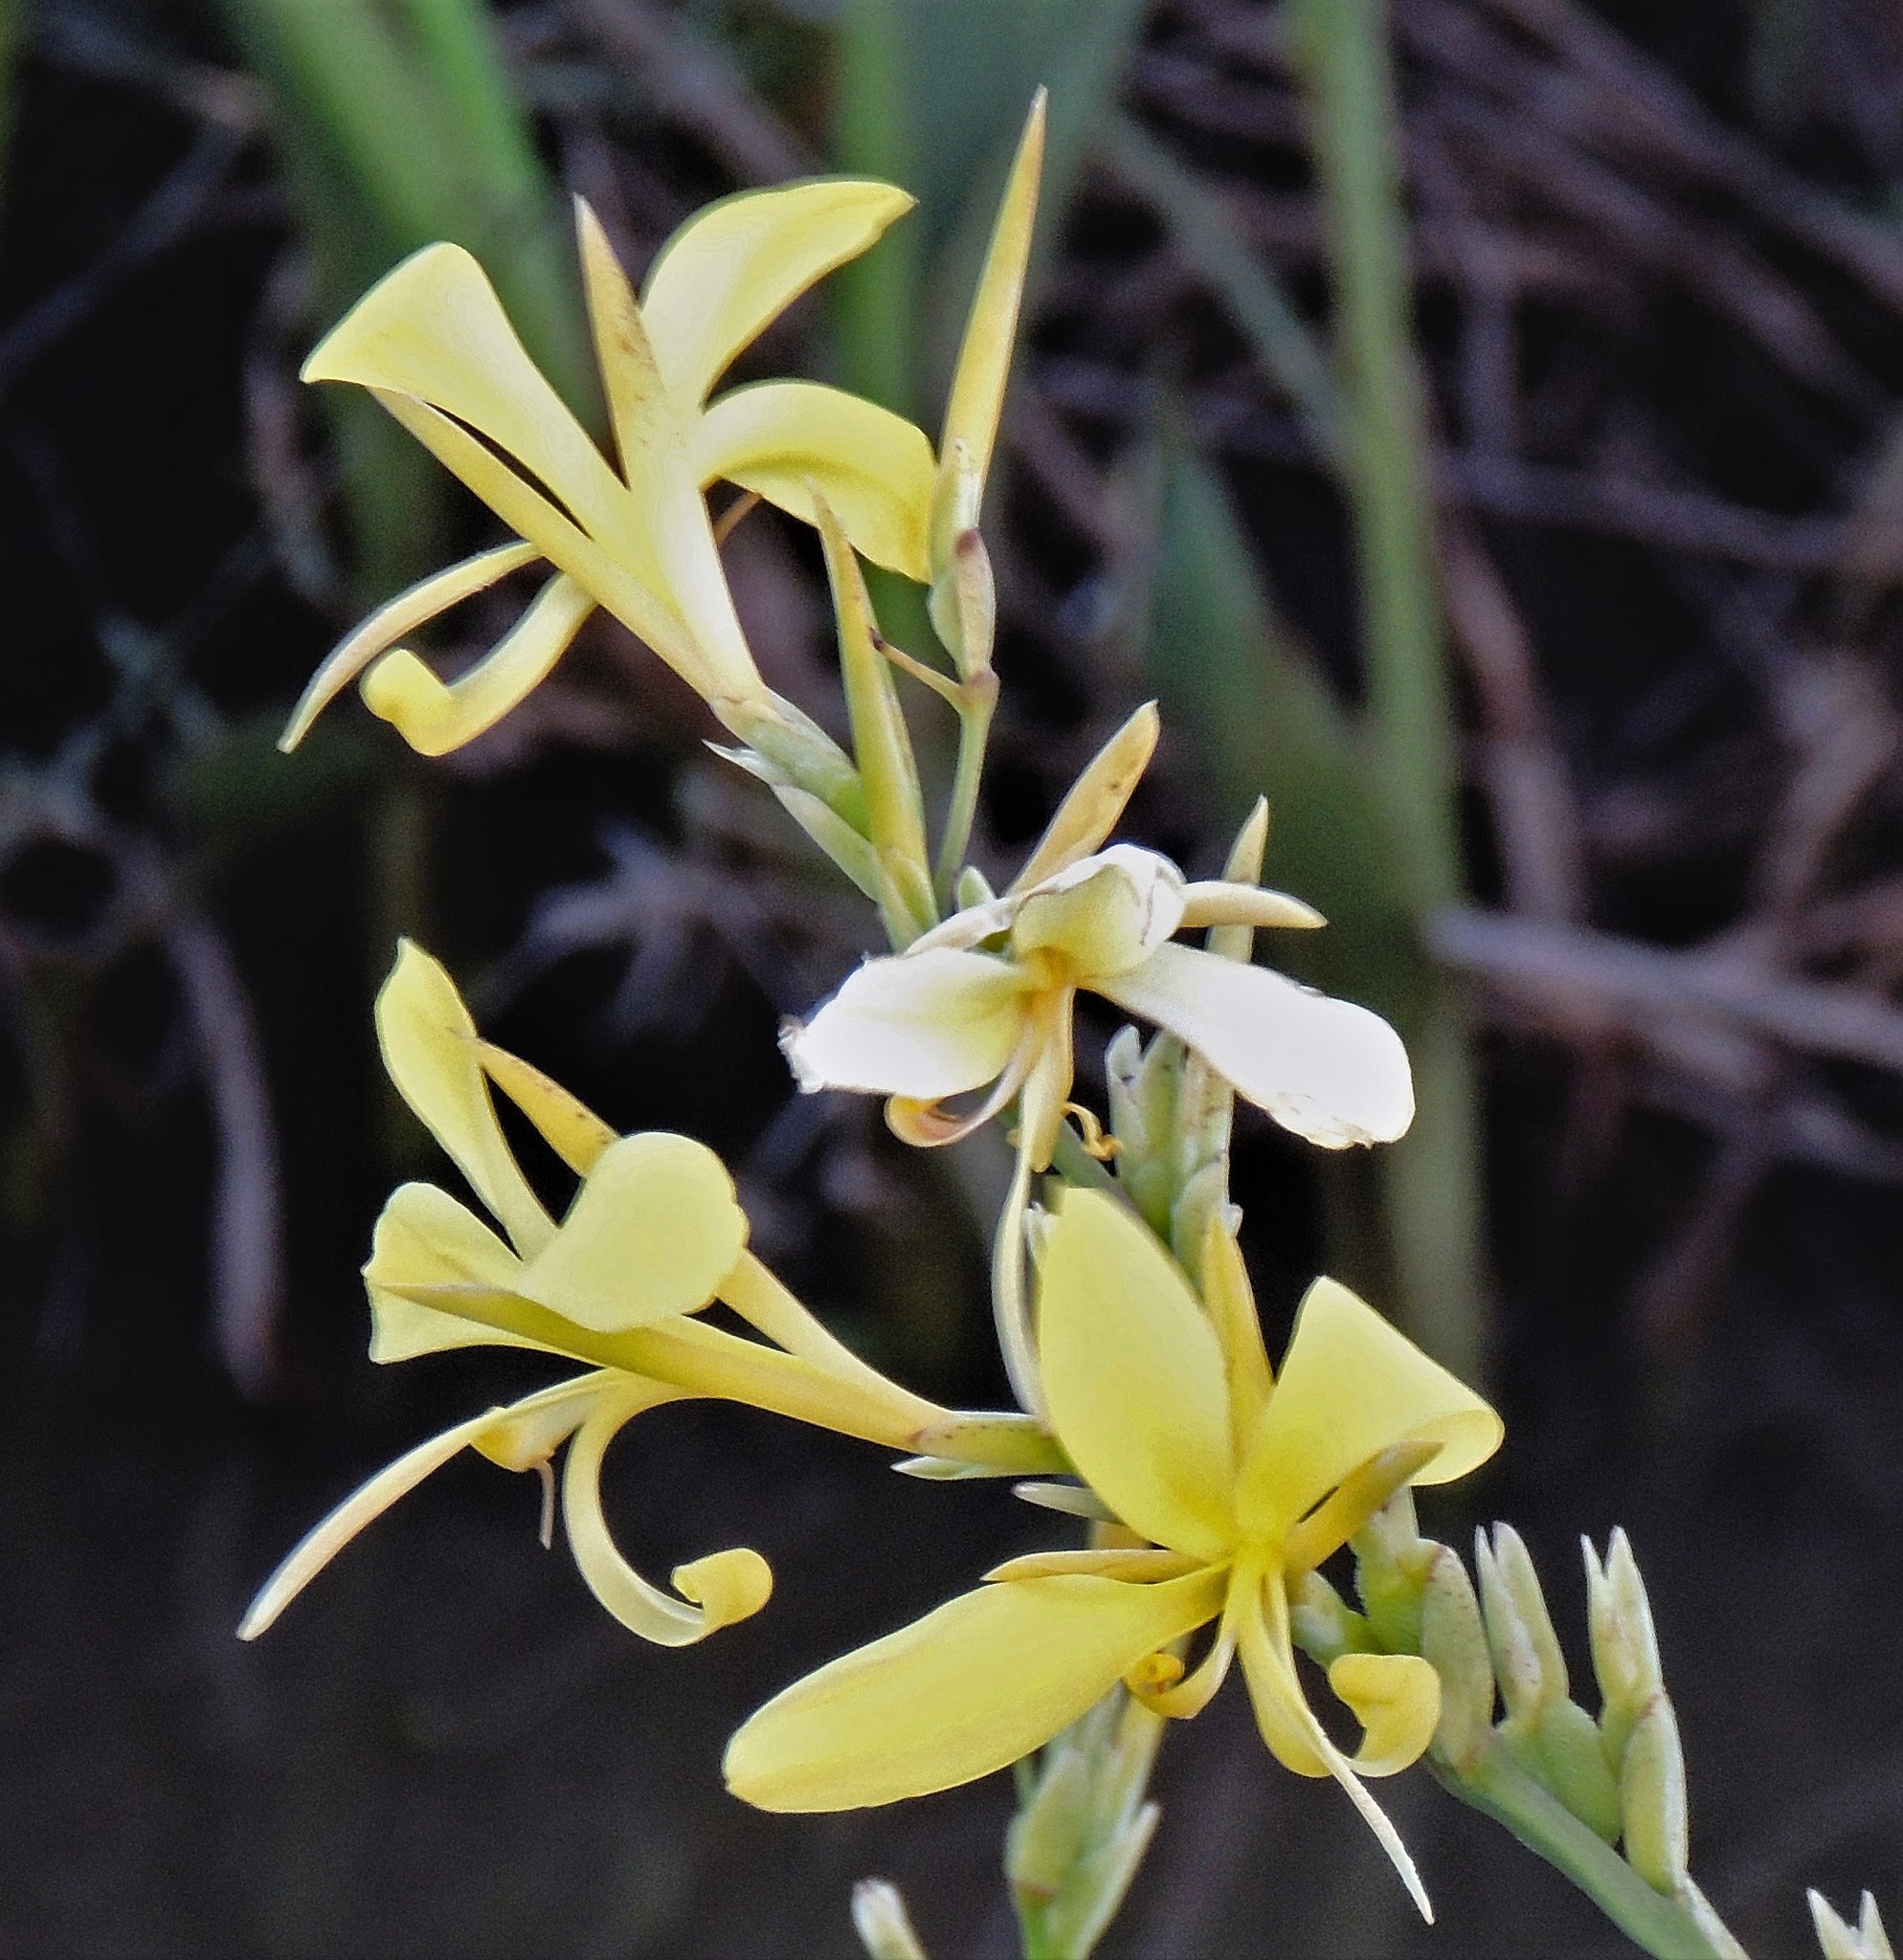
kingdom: Plantae
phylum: Tracheophyta
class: Liliopsida
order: Zingiberales
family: Cannaceae
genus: Canna
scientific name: Canna glauca
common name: Louisiana canna
